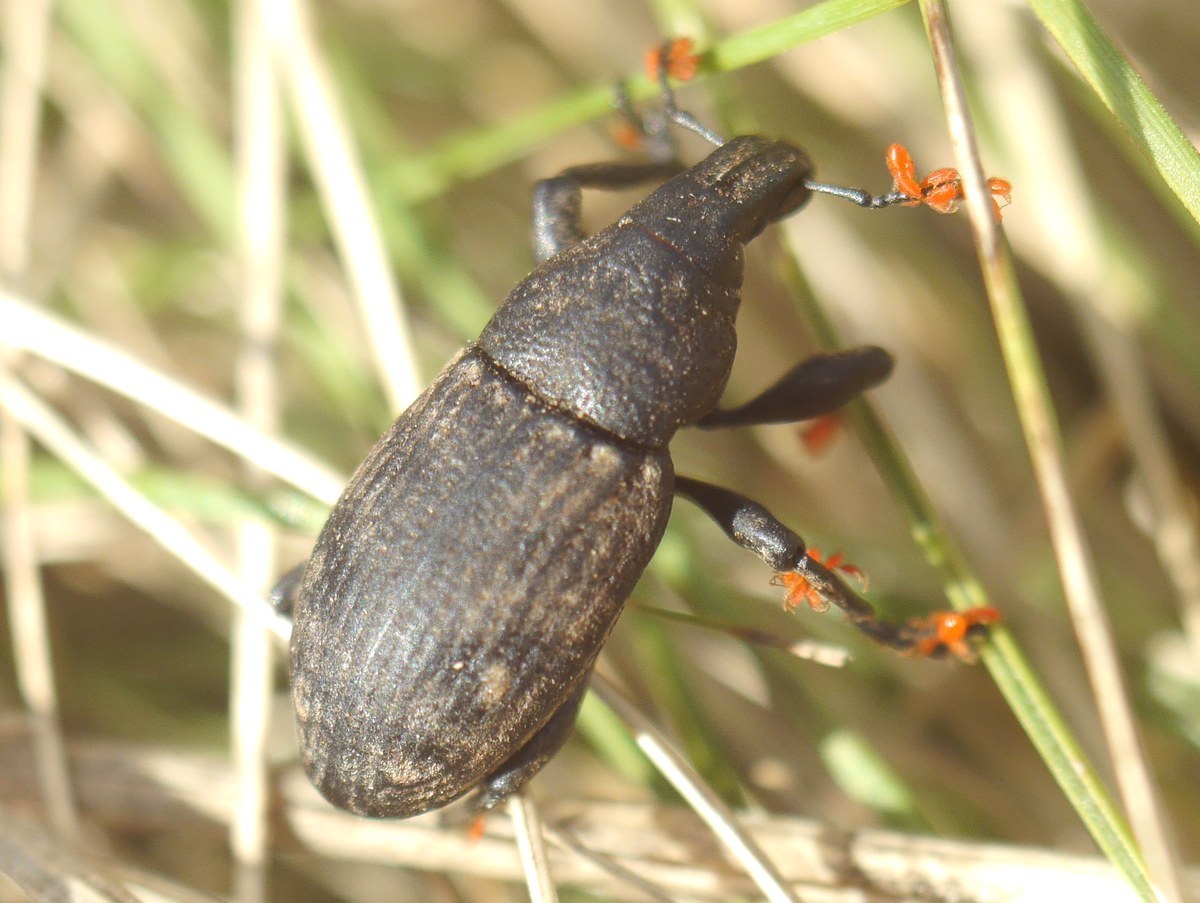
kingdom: Animalia
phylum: Arthropoda
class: Insecta
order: Coleoptera
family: Curculionidae
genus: Leucophyes
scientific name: Leucophyes pedestris
